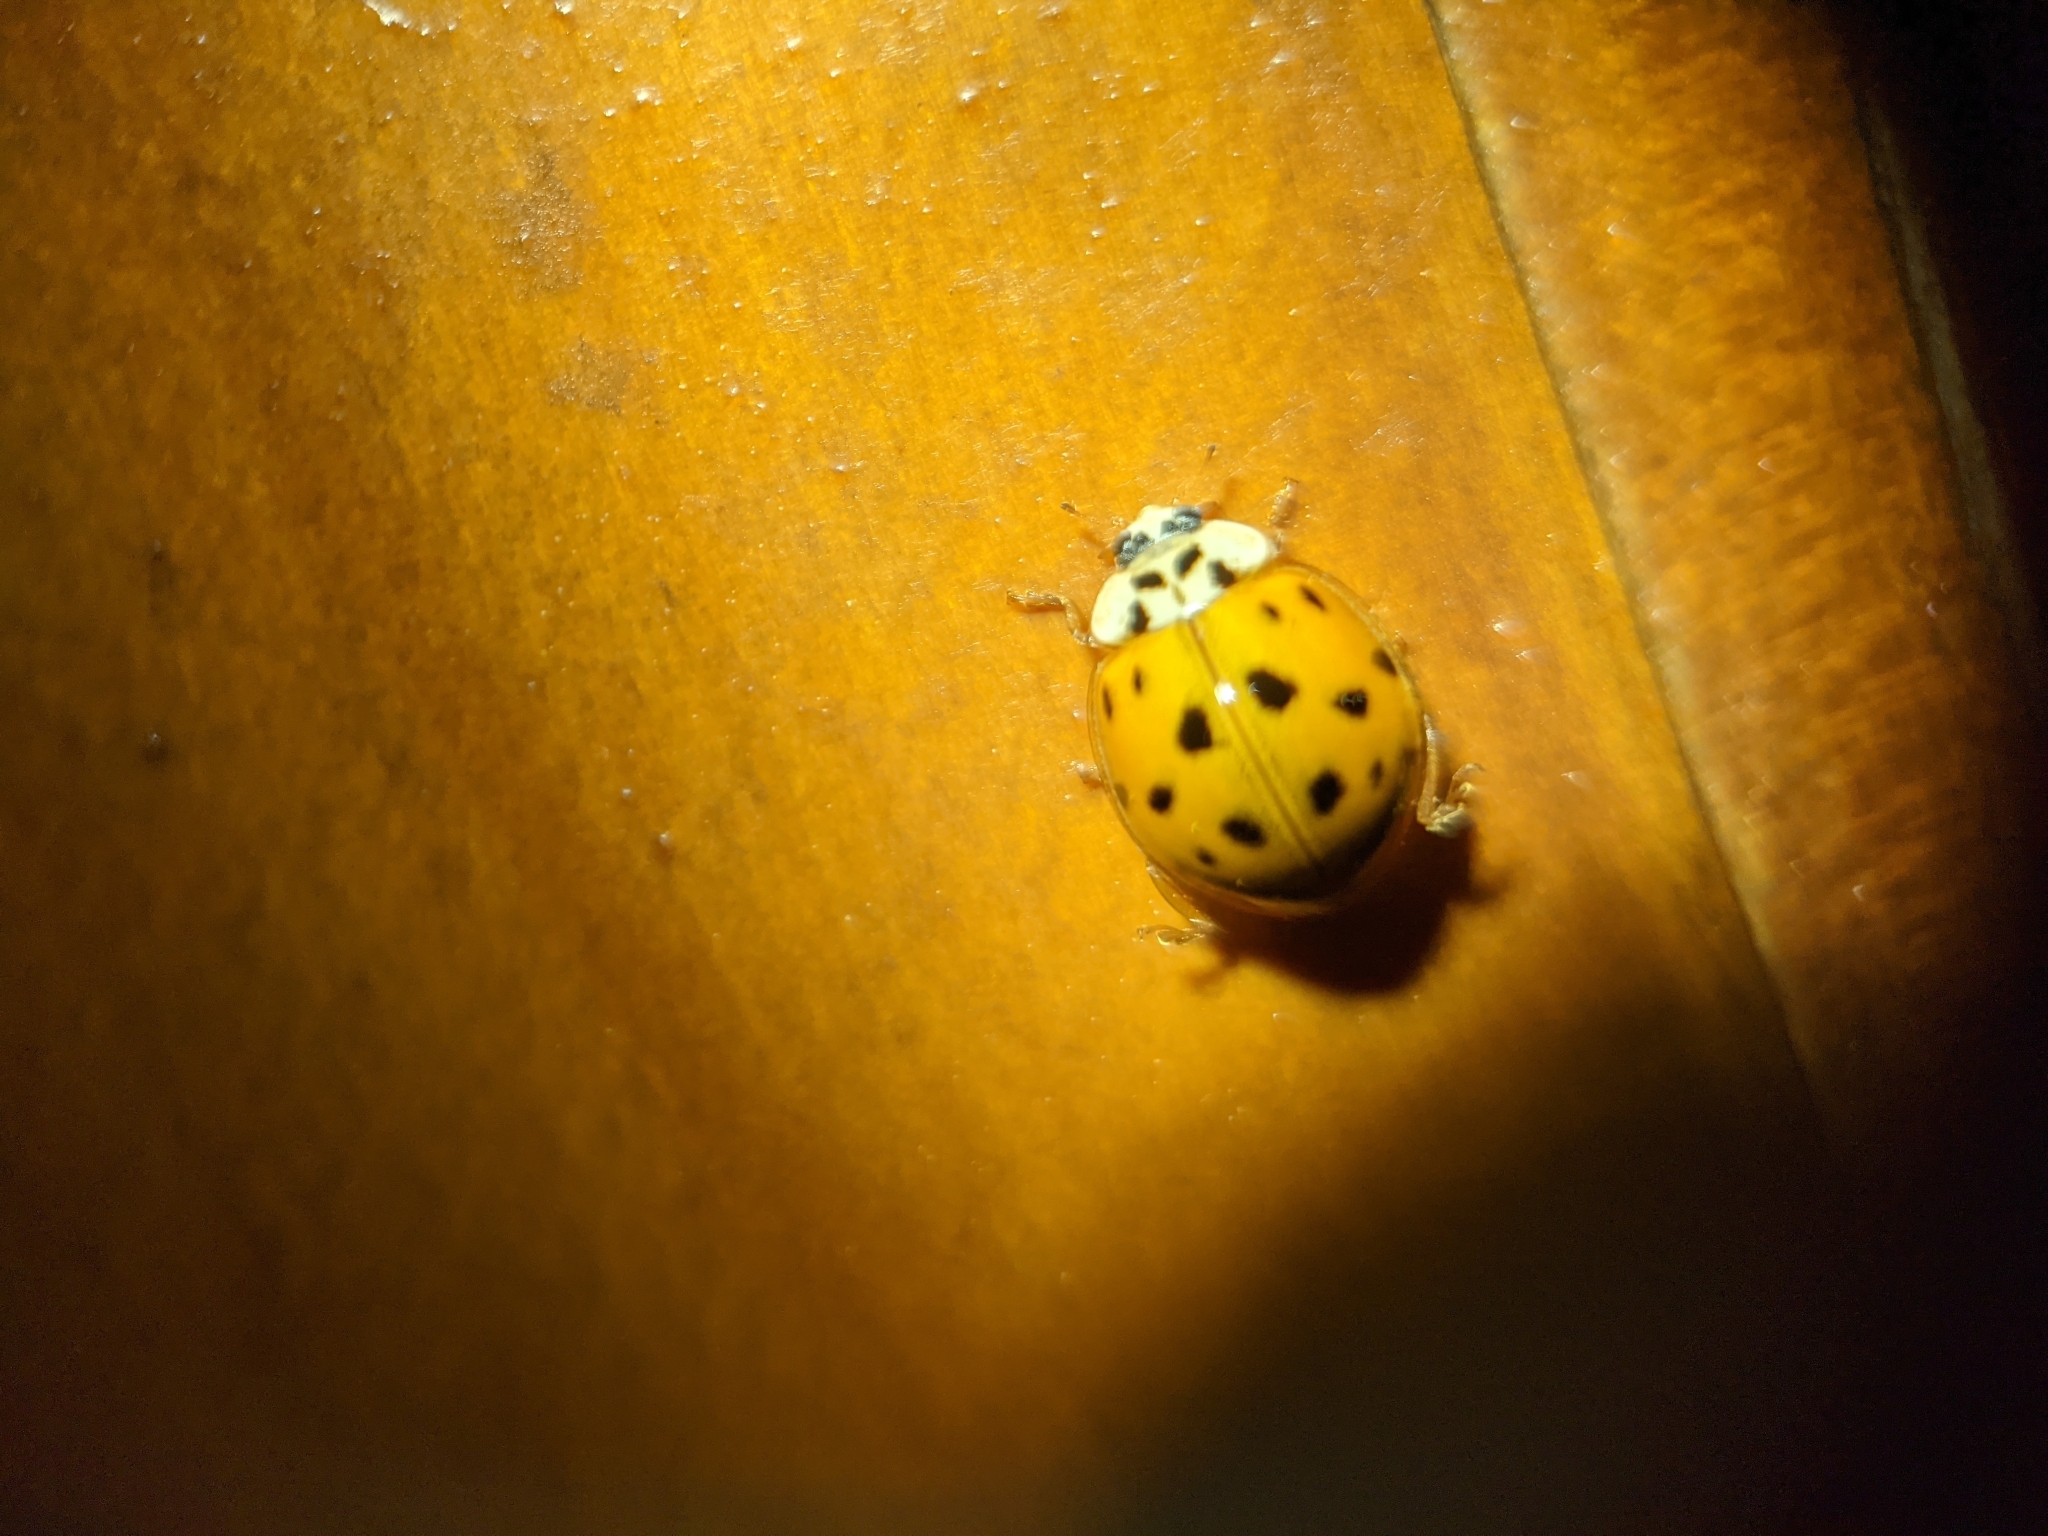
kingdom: Animalia
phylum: Arthropoda
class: Insecta
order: Coleoptera
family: Coccinellidae
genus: Harmonia
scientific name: Harmonia axyridis
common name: Harlequin ladybird
